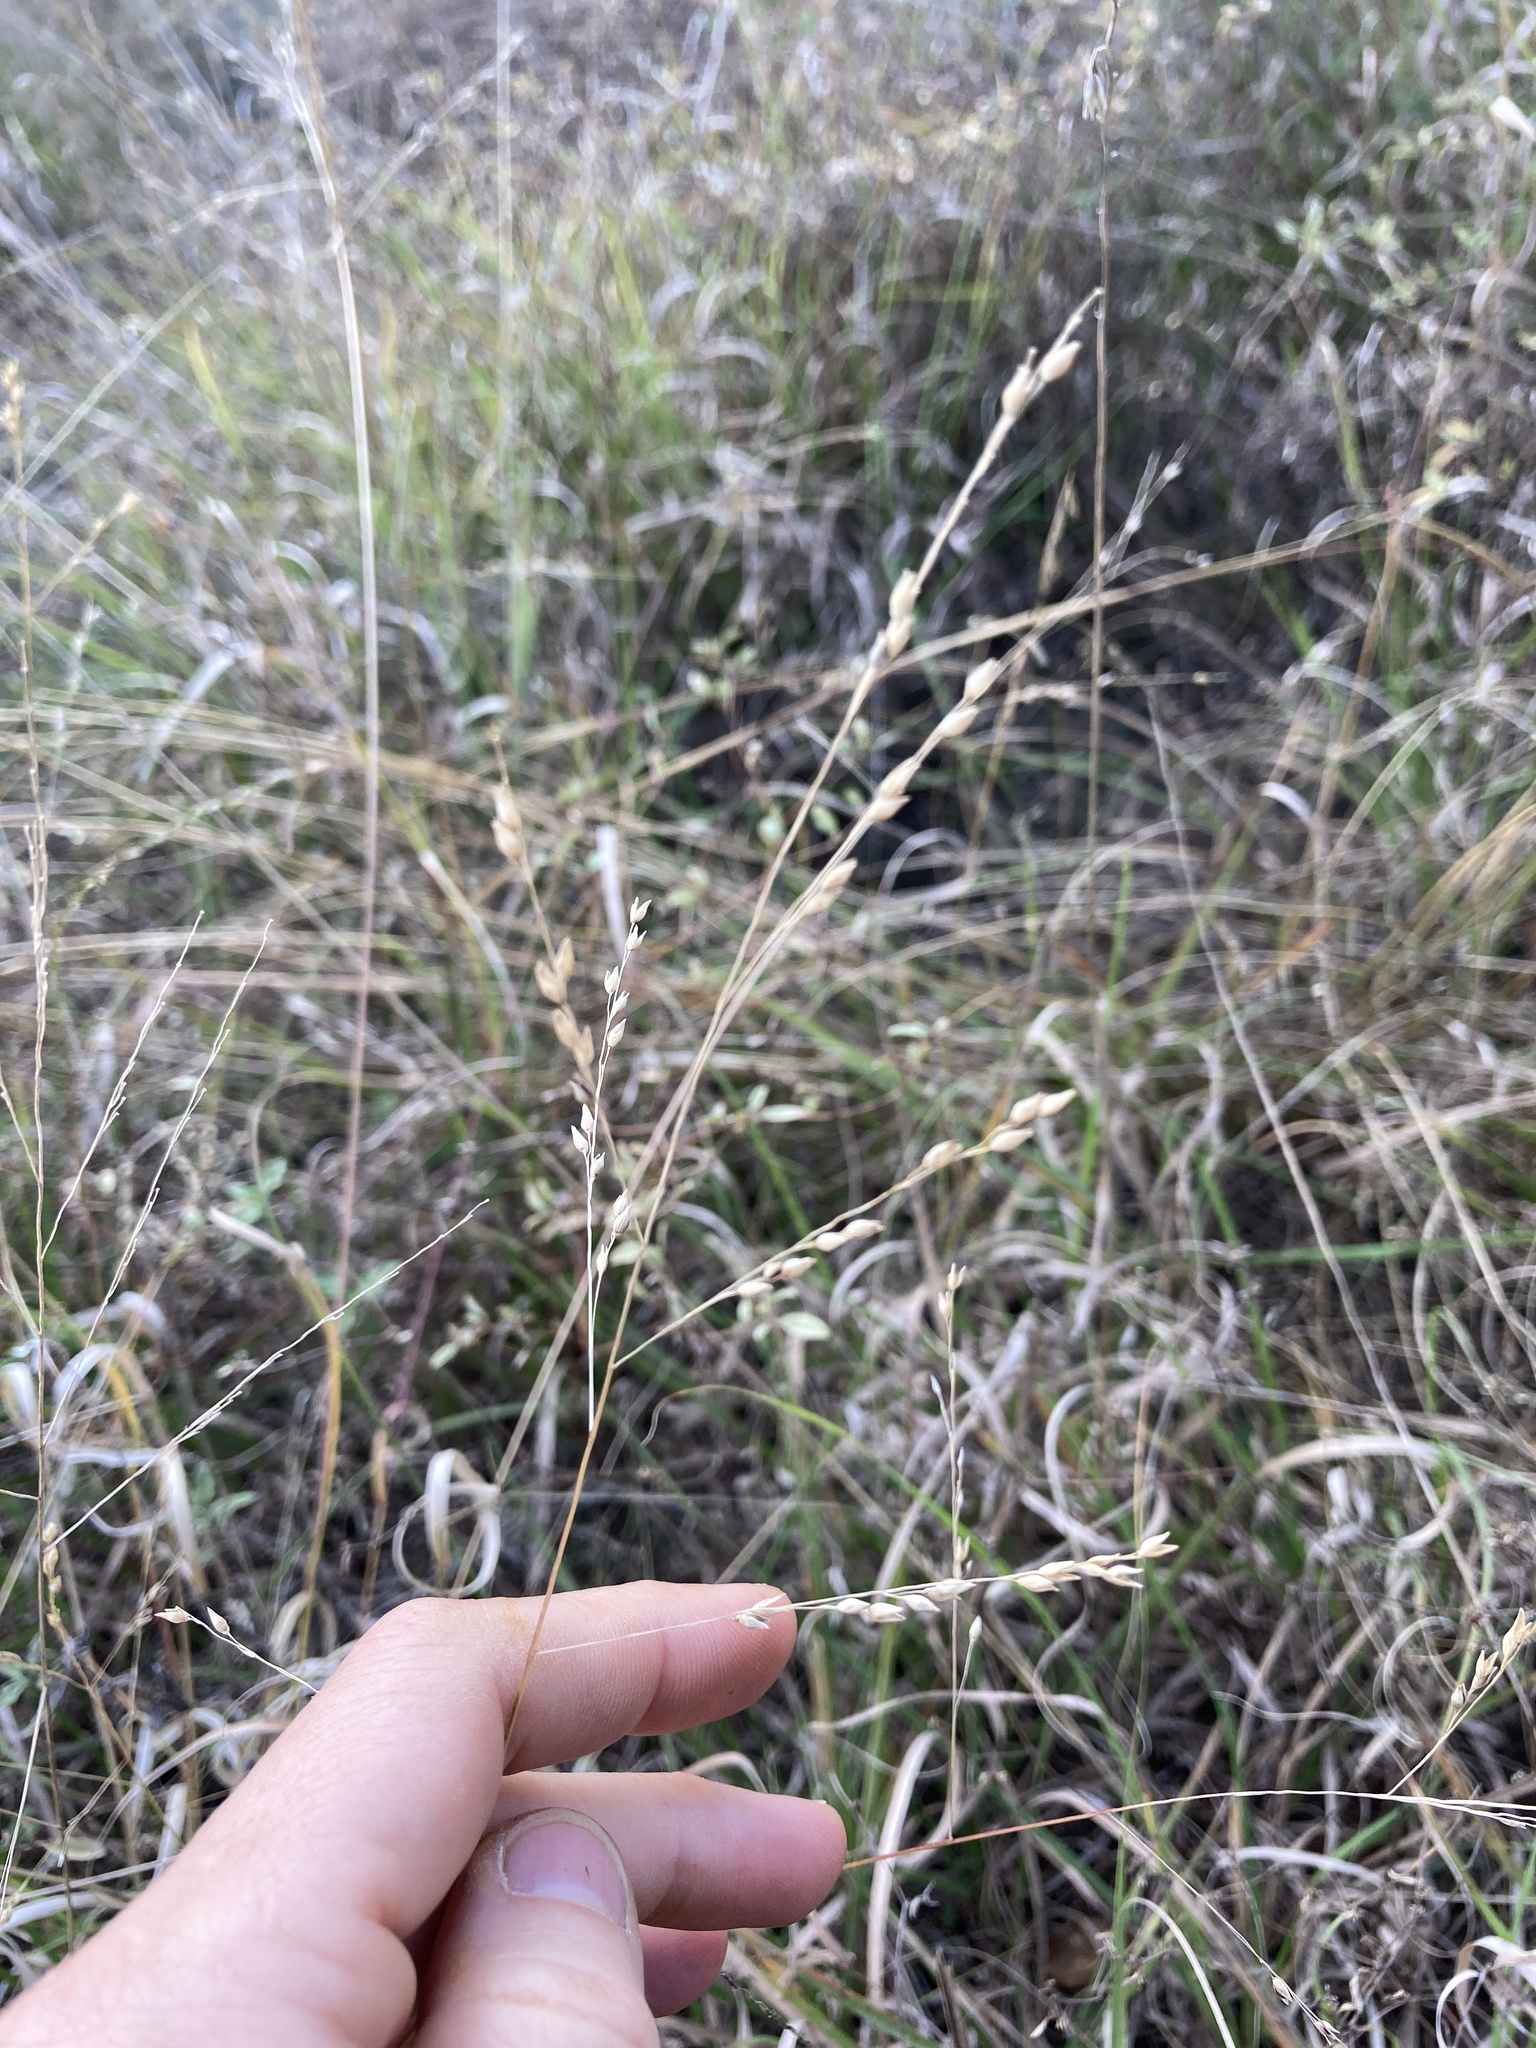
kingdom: Plantae
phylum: Tracheophyta
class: Liliopsida
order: Poales
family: Poaceae
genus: Panicum
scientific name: Panicum hallii
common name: Hall's witchgrass
